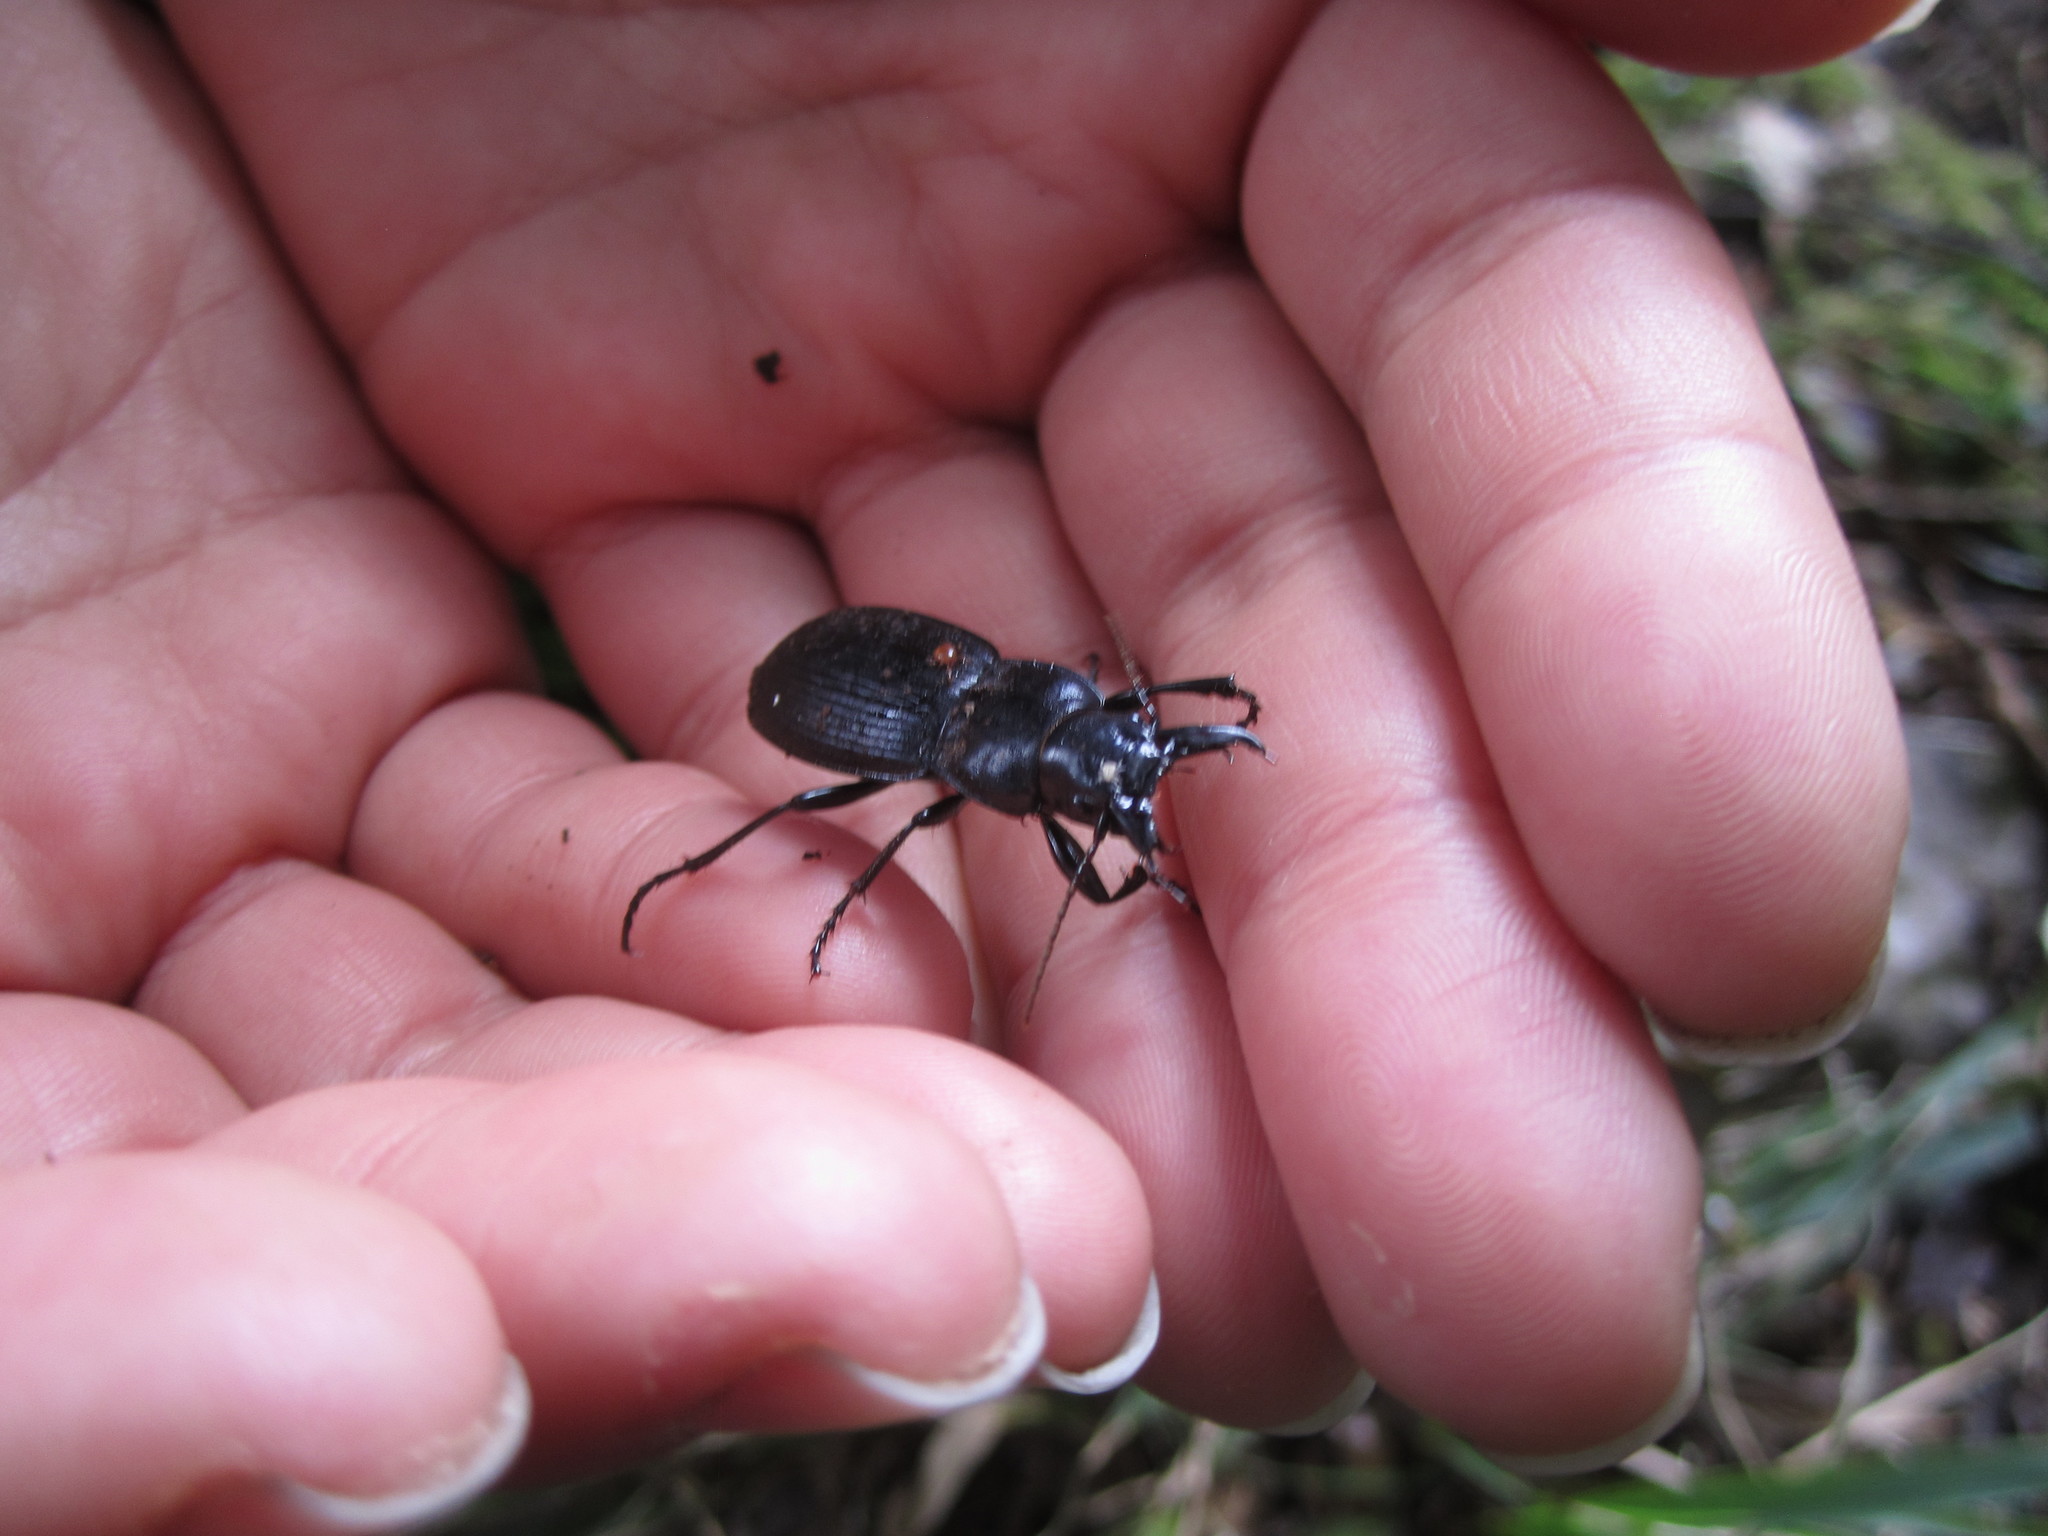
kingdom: Animalia
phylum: Arthropoda
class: Insecta
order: Coleoptera
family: Carabidae
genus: Plocamostethus
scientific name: Plocamostethus planiusculus
